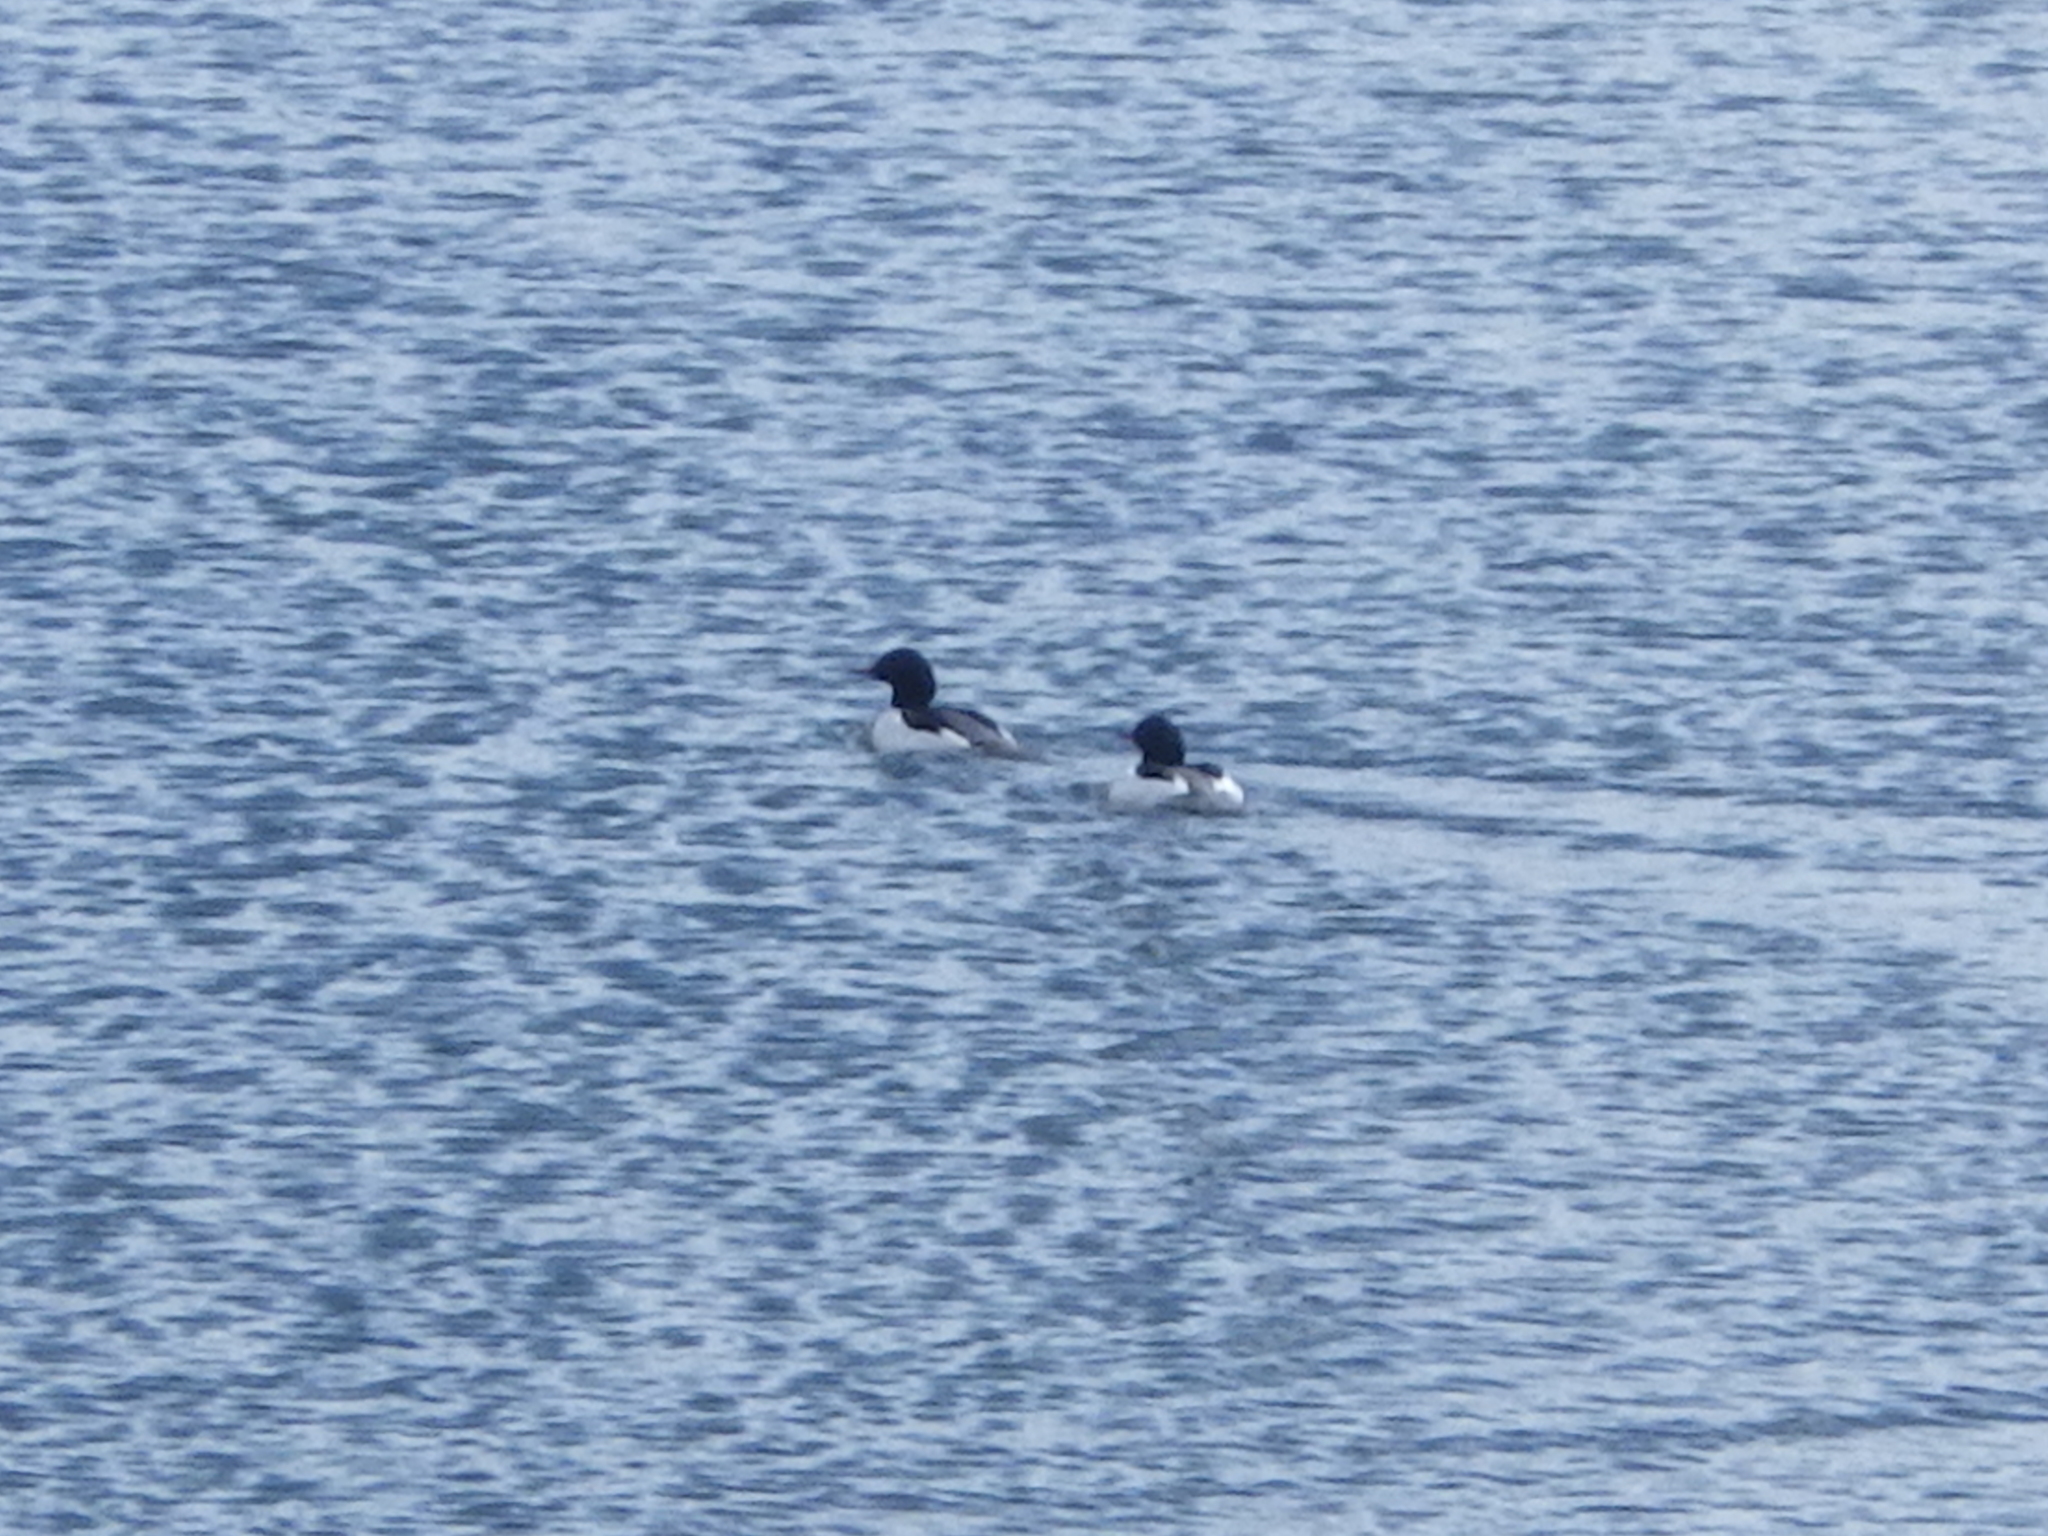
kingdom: Animalia
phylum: Chordata
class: Aves
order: Anseriformes
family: Anatidae
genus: Mergus
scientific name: Mergus merganser
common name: Common merganser
